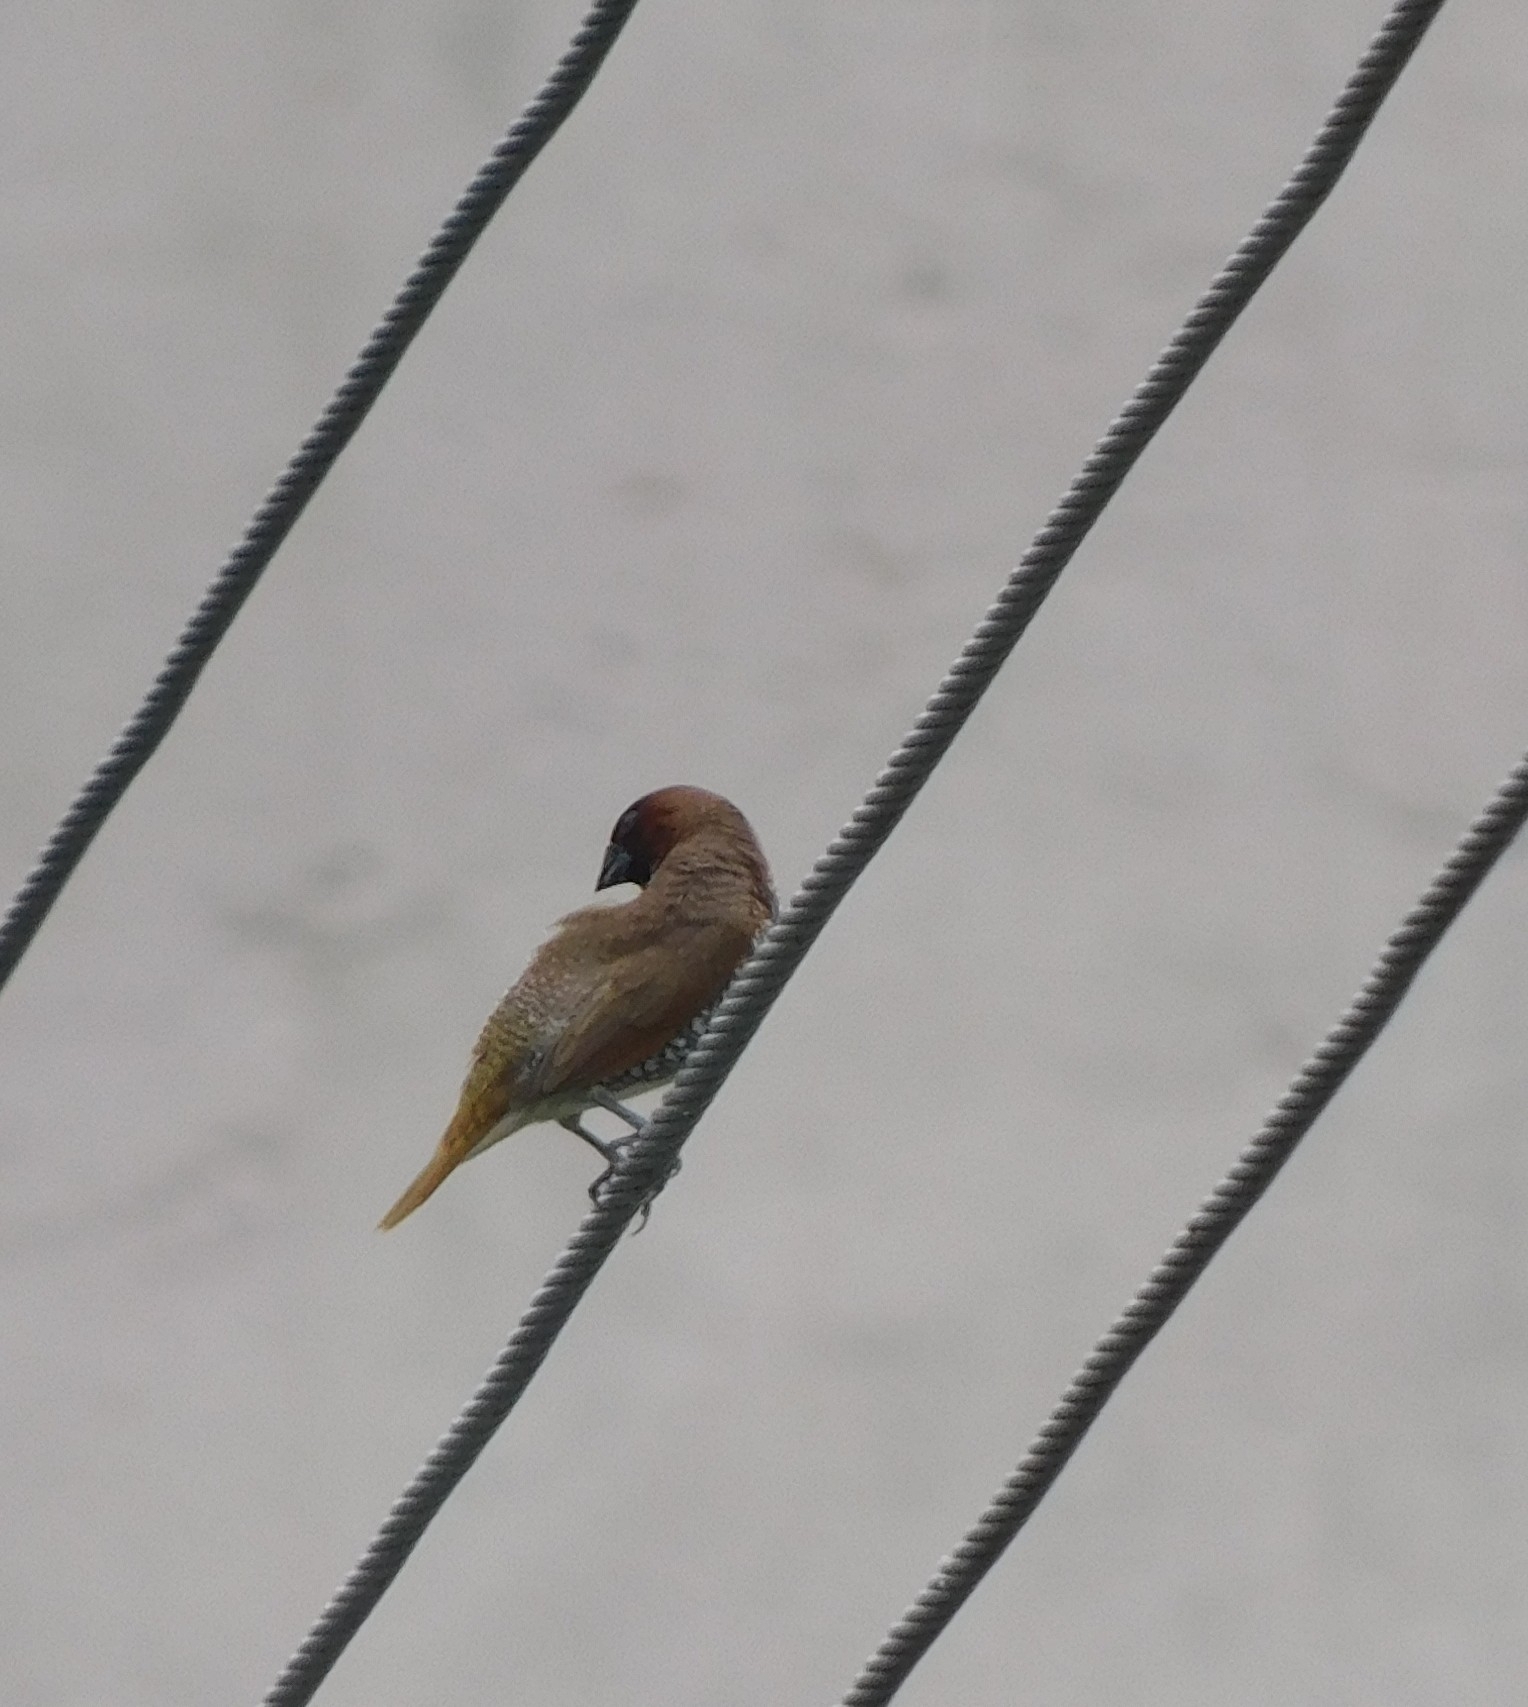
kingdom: Animalia
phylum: Chordata
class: Aves
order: Passeriformes
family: Estrildidae
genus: Lonchura
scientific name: Lonchura punctulata
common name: Scaly-breasted munia
